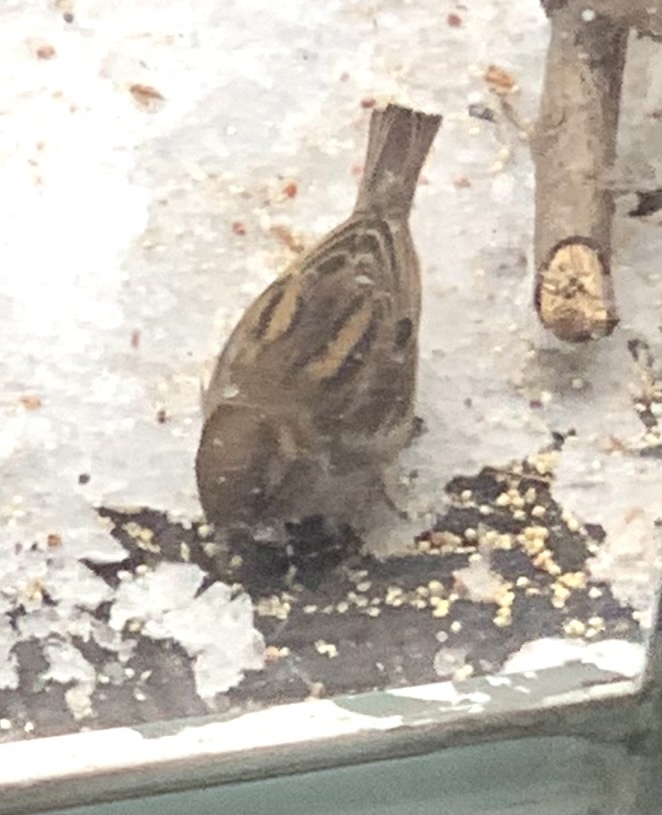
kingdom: Animalia
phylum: Chordata
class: Aves
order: Passeriformes
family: Passeridae
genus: Passer
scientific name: Passer domesticus
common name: House sparrow
